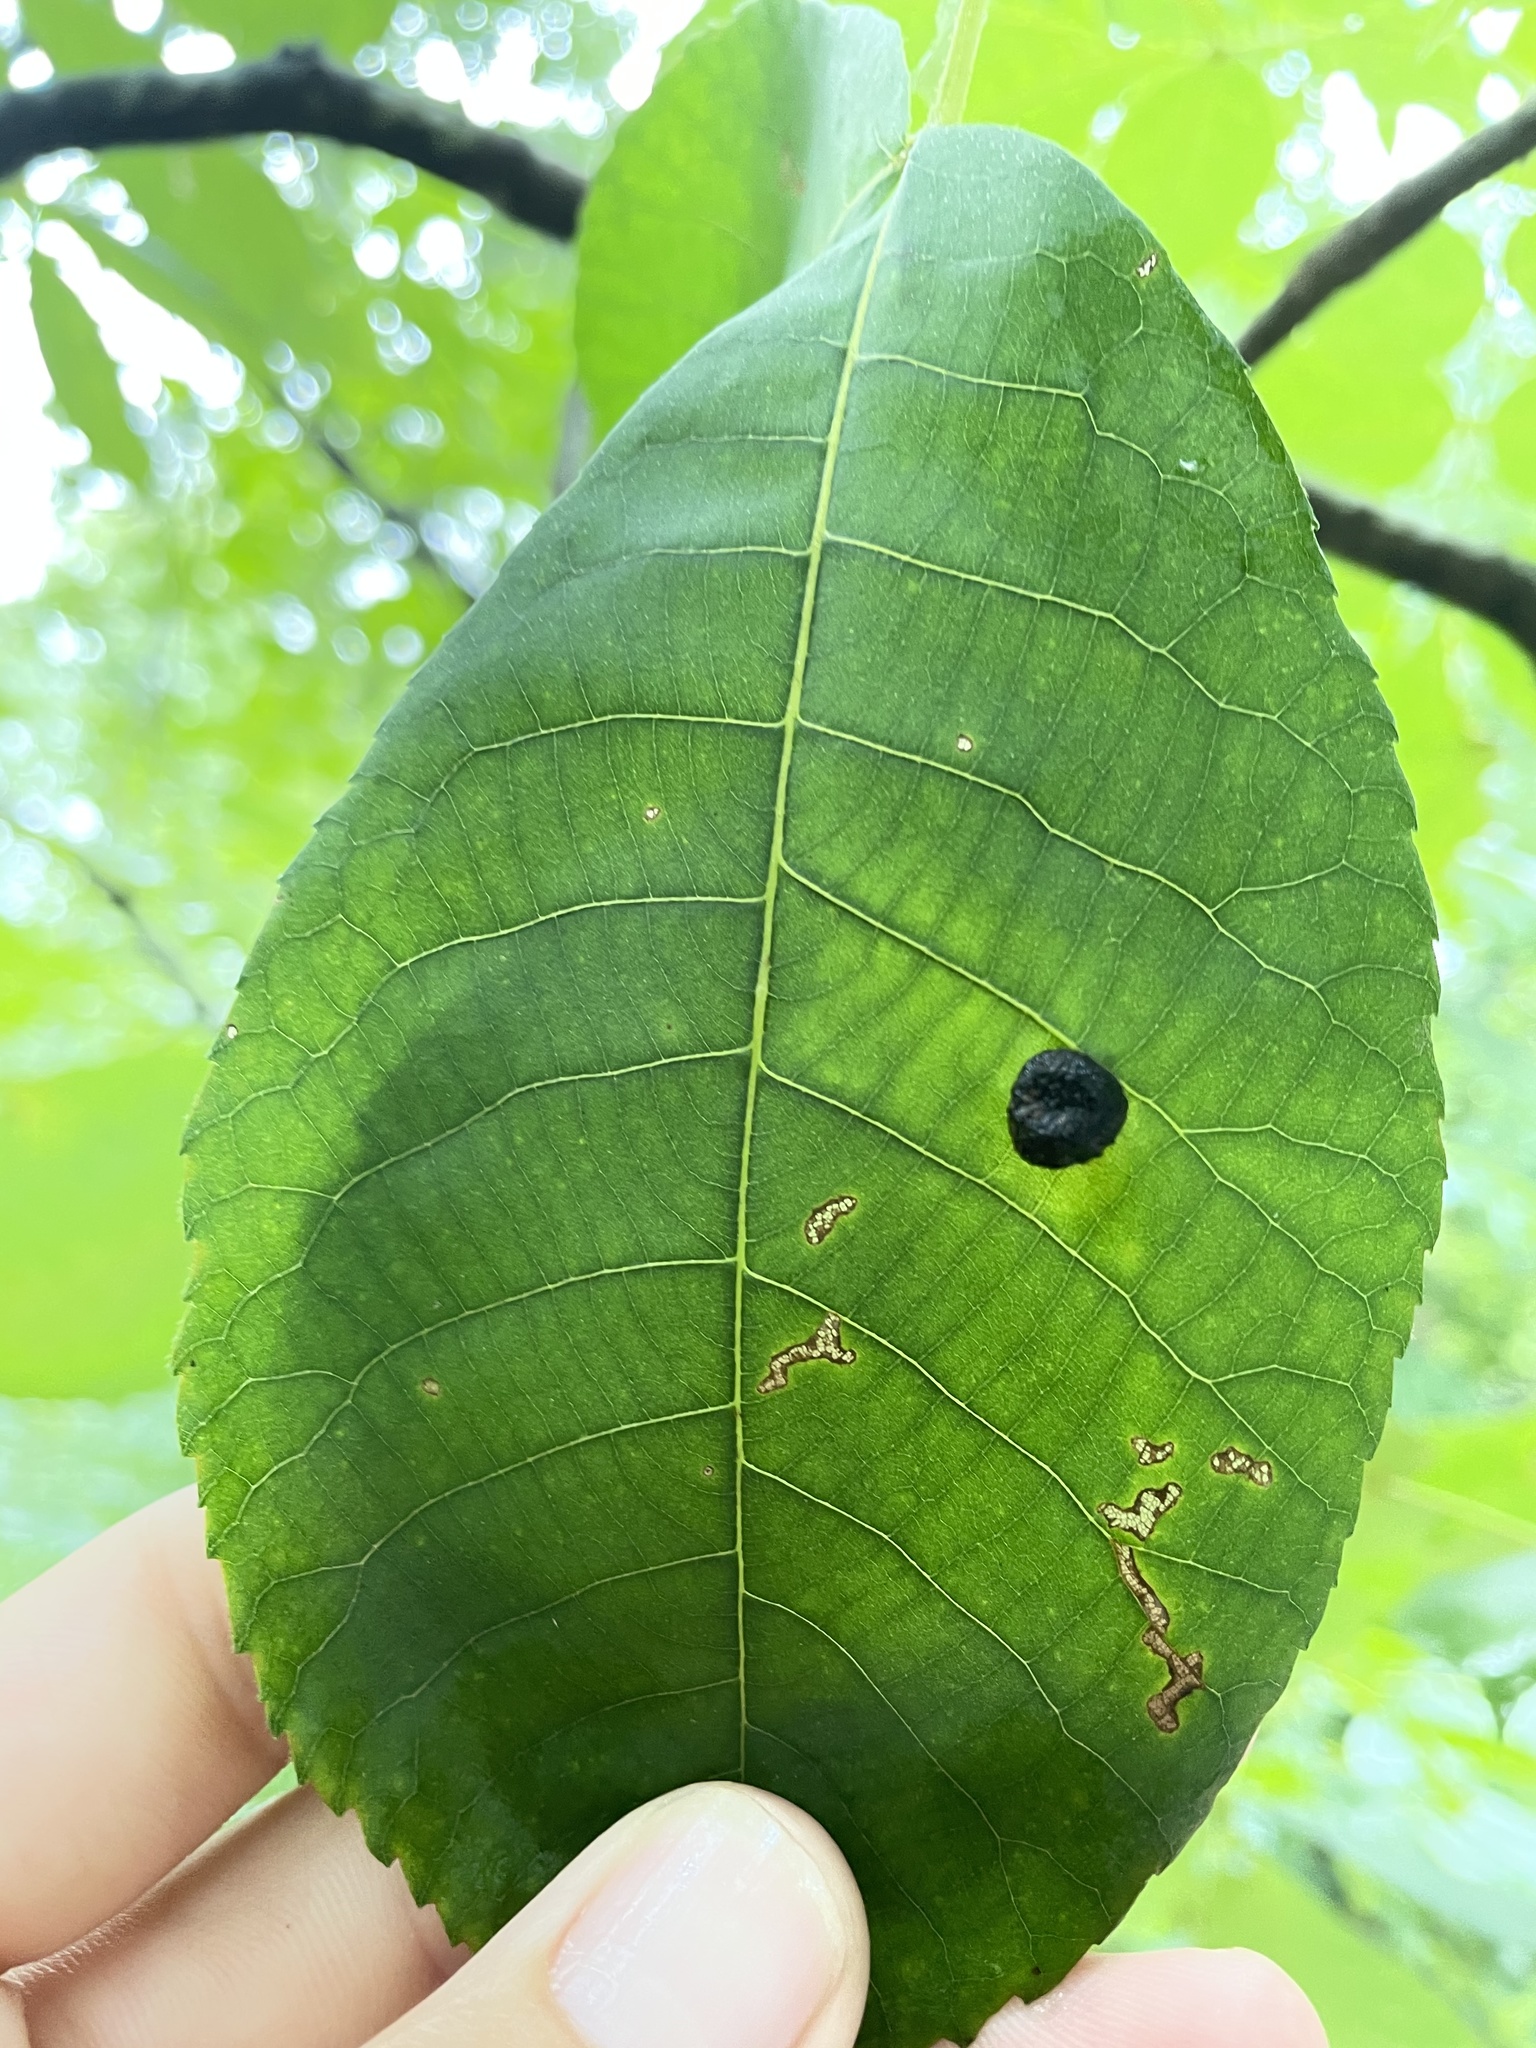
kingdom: Animalia
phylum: Arthropoda
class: Insecta
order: Hemiptera
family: Phylloxeridae
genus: Daktulosphaira
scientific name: Daktulosphaira conicum
